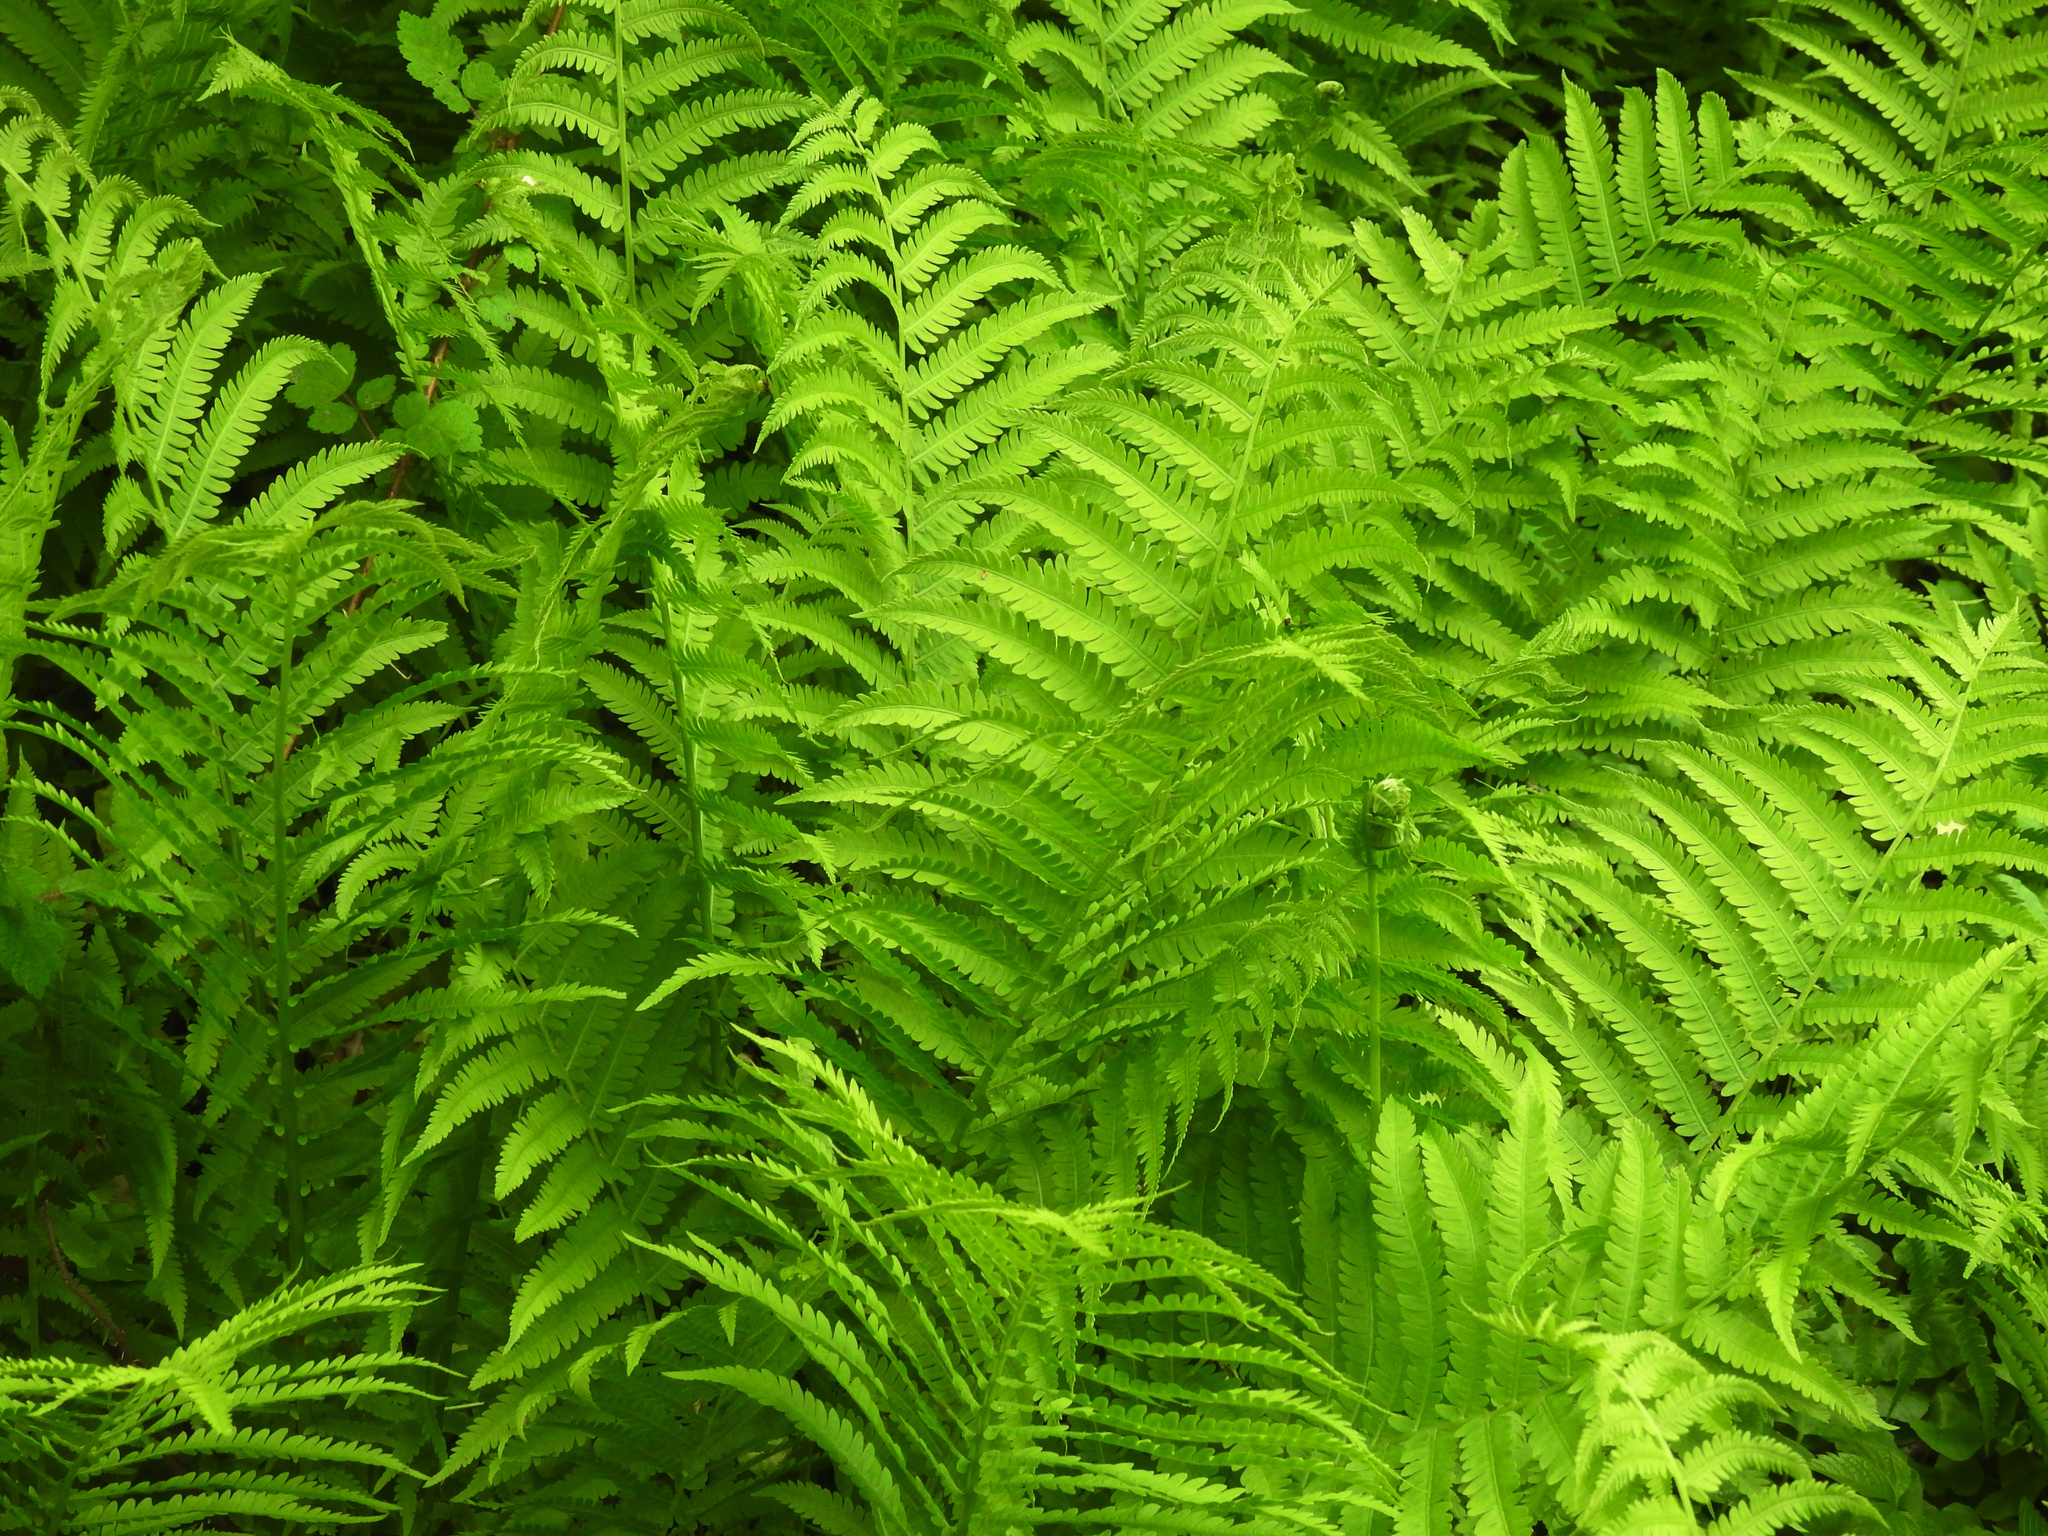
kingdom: Plantae
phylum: Tracheophyta
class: Polypodiopsida
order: Polypodiales
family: Onocleaceae
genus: Matteuccia
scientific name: Matteuccia struthiopteris
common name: Ostrich fern
